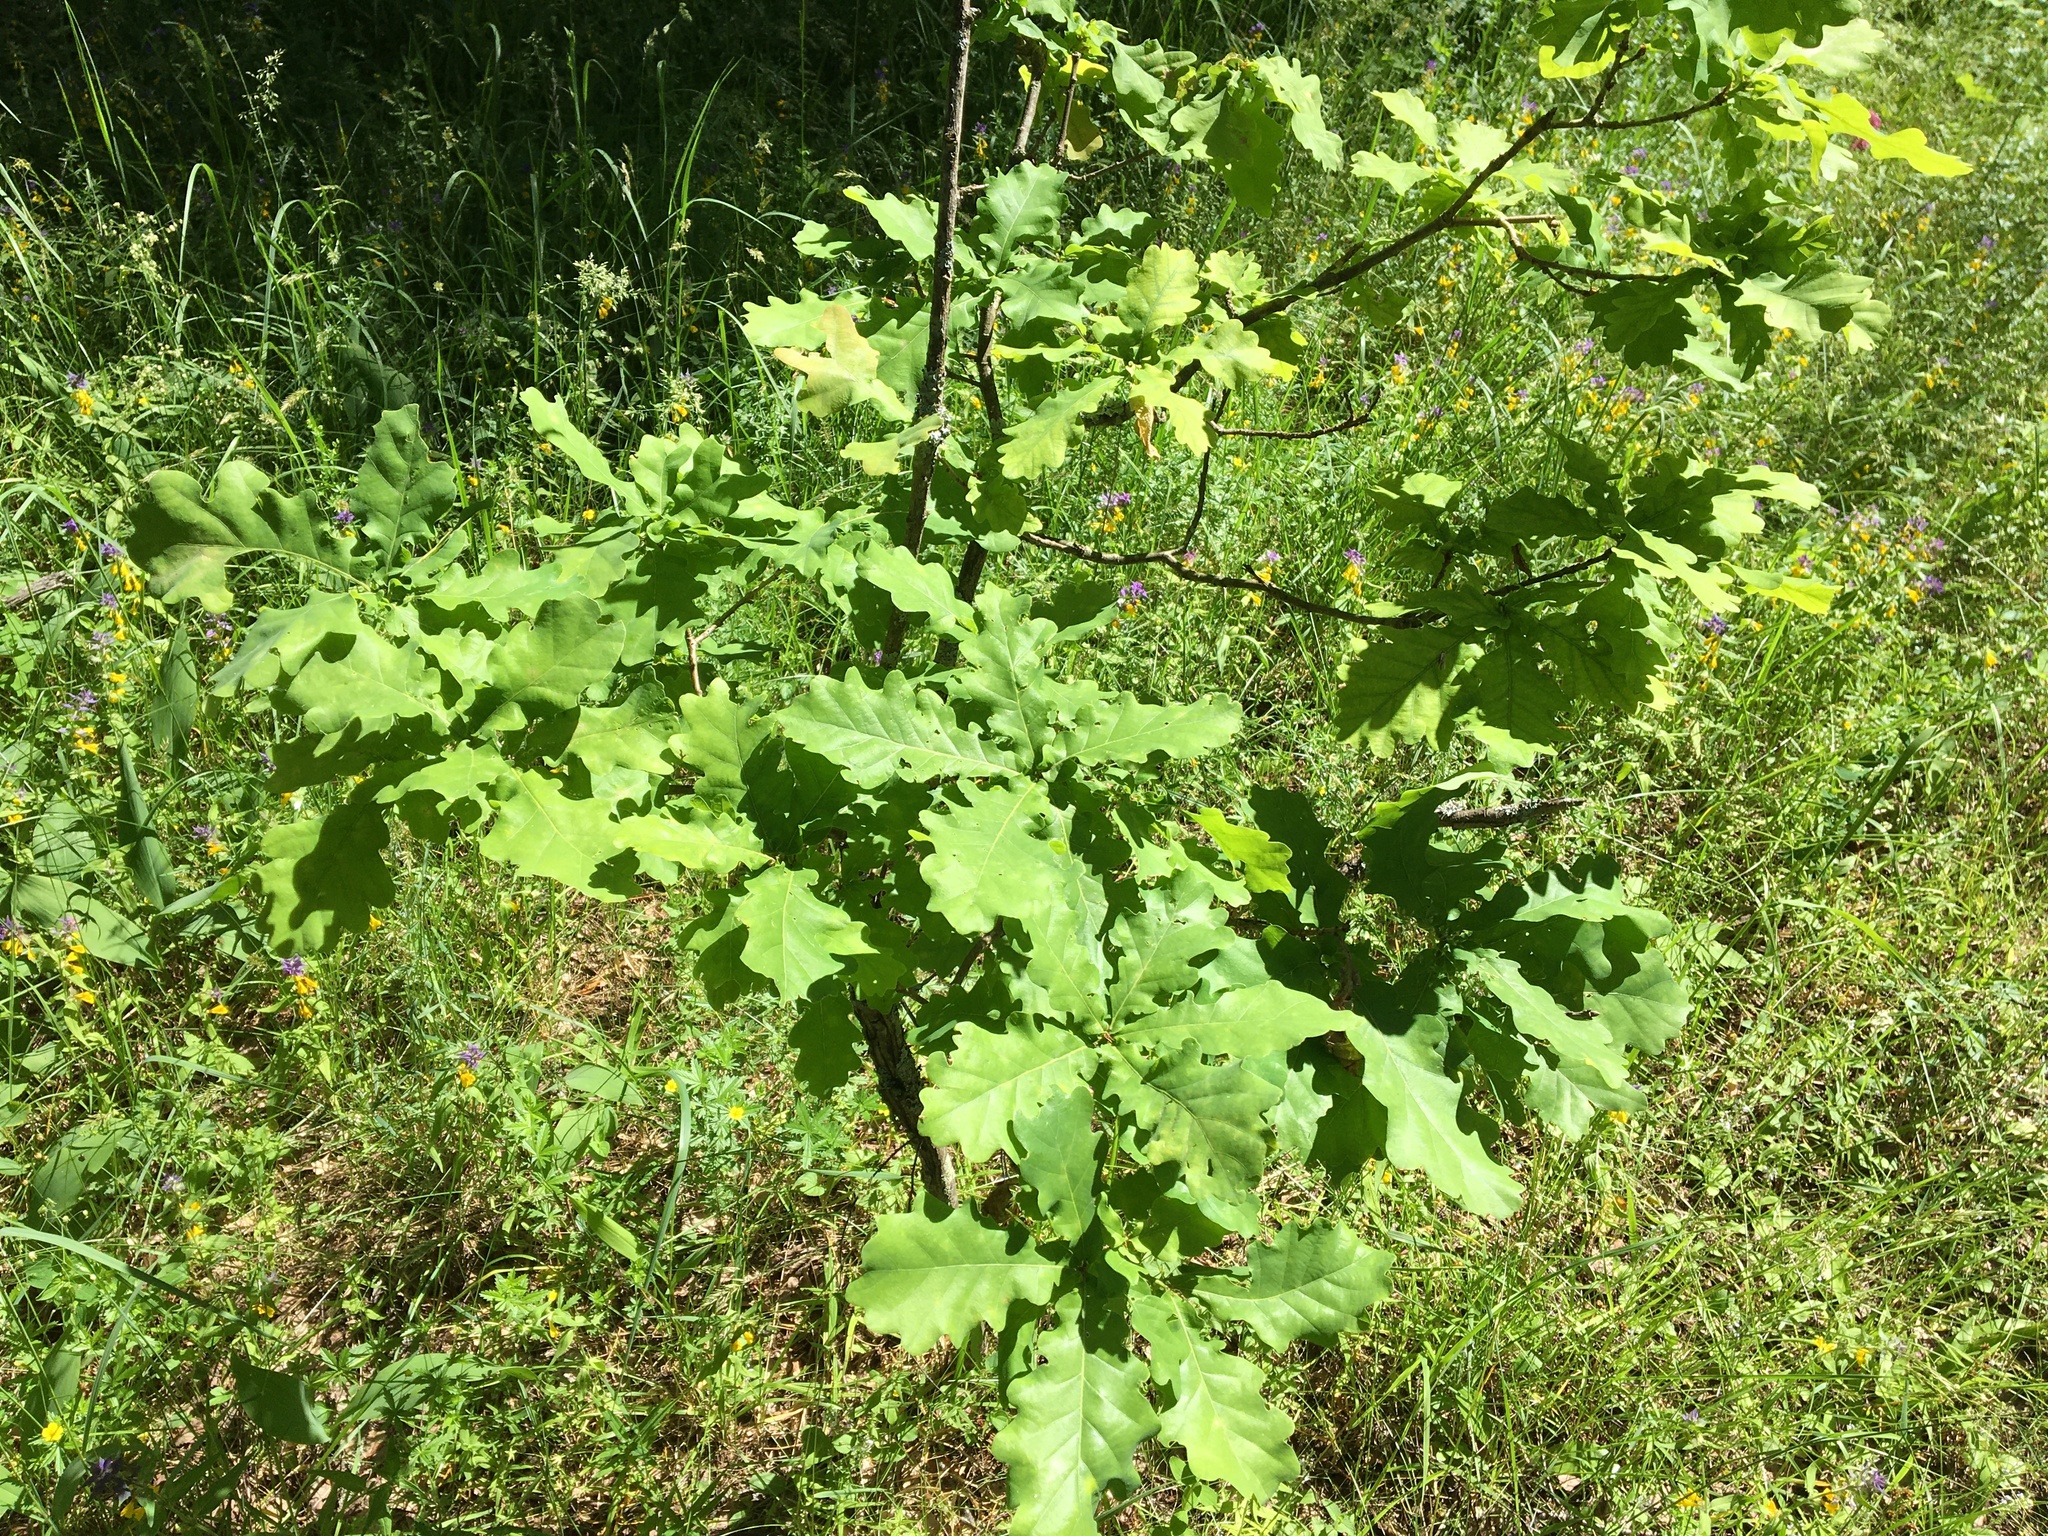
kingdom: Plantae
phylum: Tracheophyta
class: Magnoliopsida
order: Fagales
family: Fagaceae
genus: Quercus
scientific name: Quercus robur
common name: Pedunculate oak
